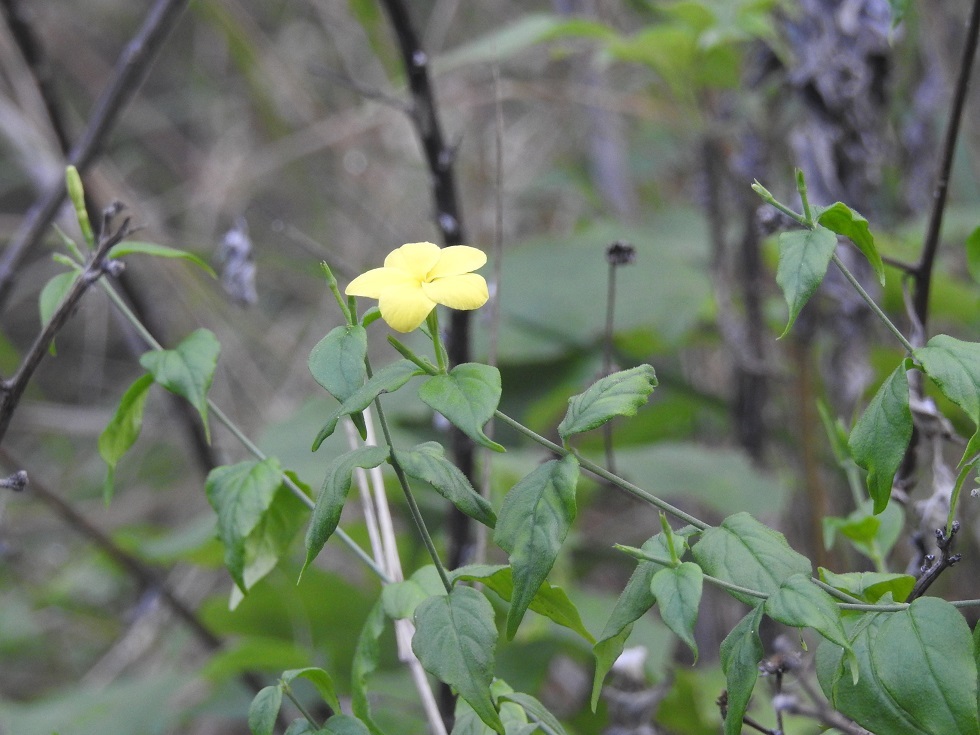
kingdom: Plantae
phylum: Tracheophyta
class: Magnoliopsida
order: Gentianales
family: Apocynaceae
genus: Haplophyton
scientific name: Haplophyton cimicidum
